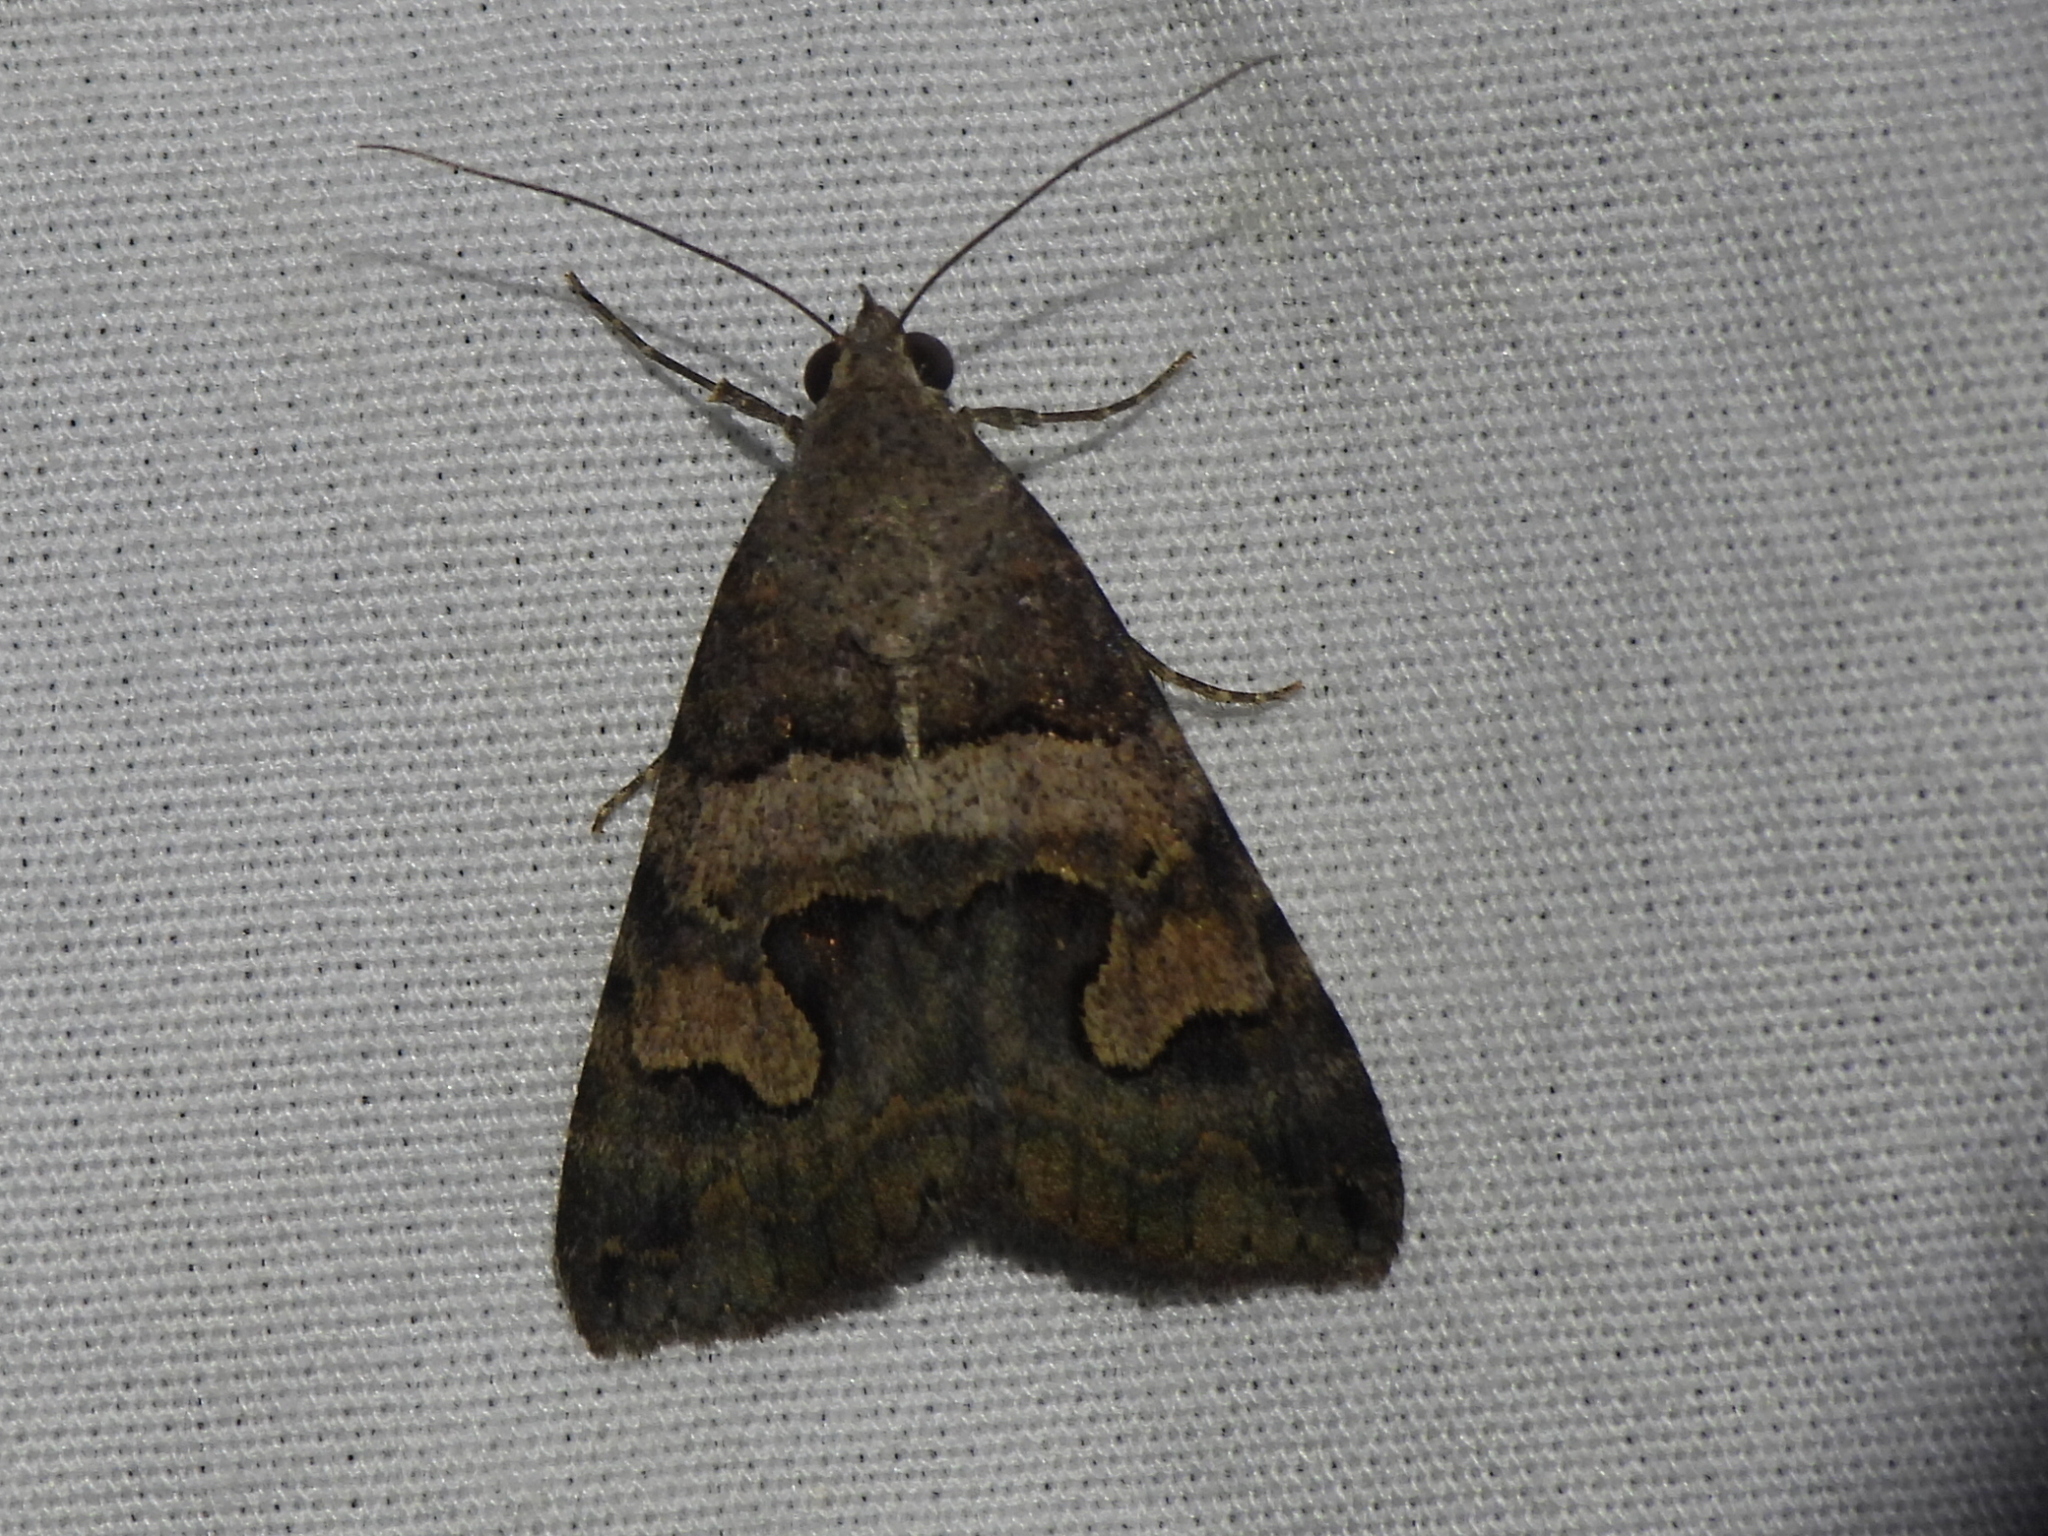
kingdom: Animalia
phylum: Arthropoda
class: Insecta
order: Lepidoptera
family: Erebidae
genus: Bulia
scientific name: Bulia deducta
